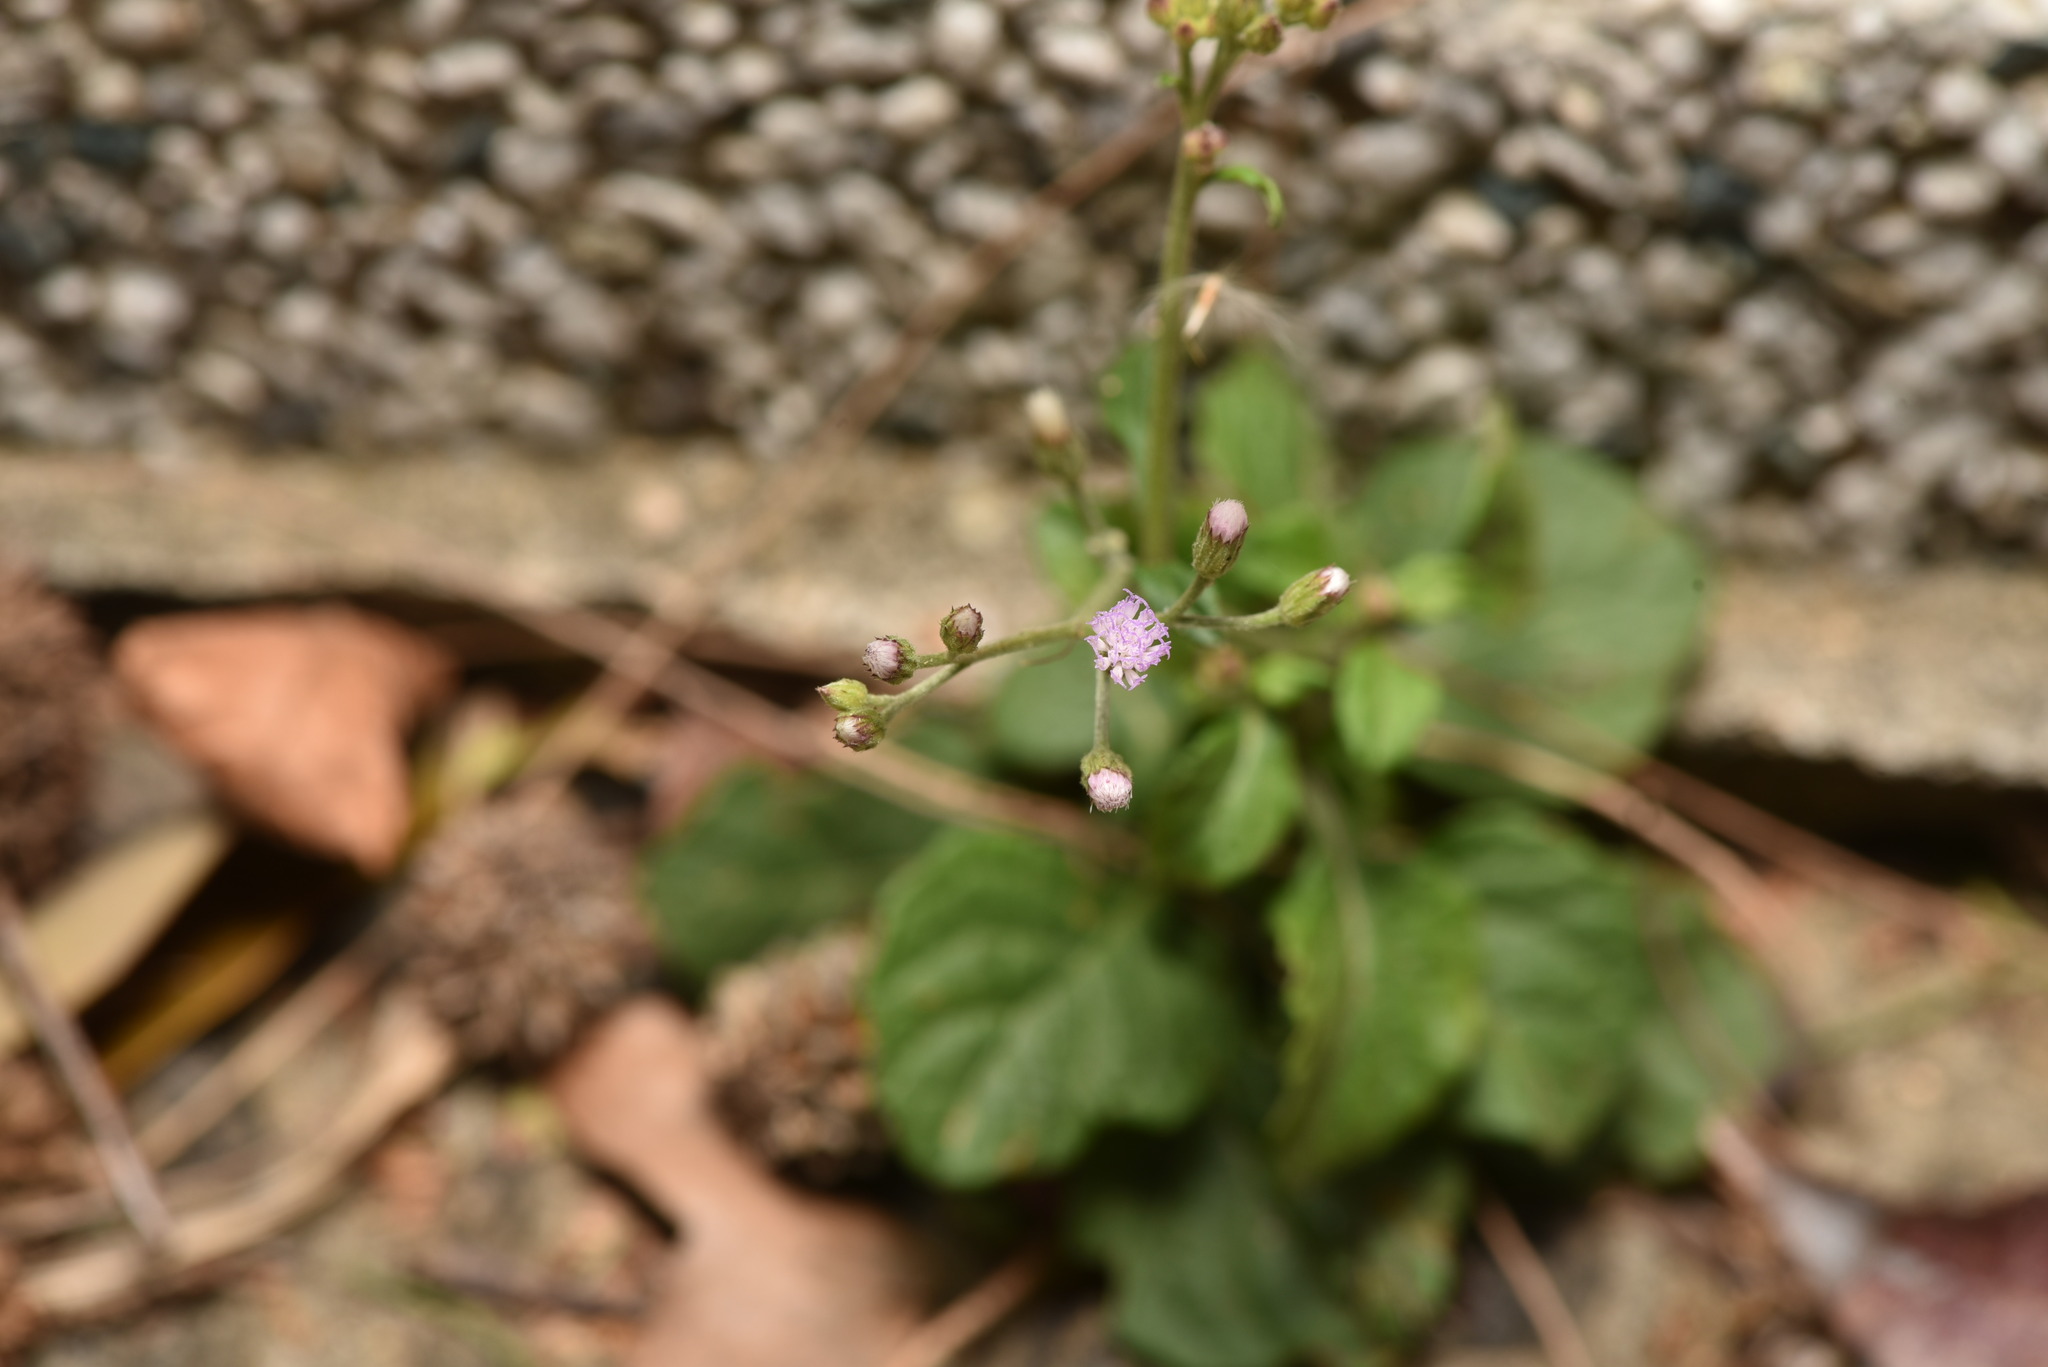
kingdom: Plantae
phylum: Tracheophyta
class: Magnoliopsida
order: Asterales
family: Asteraceae
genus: Cyanthillium
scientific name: Cyanthillium cinereum
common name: Little ironweed
